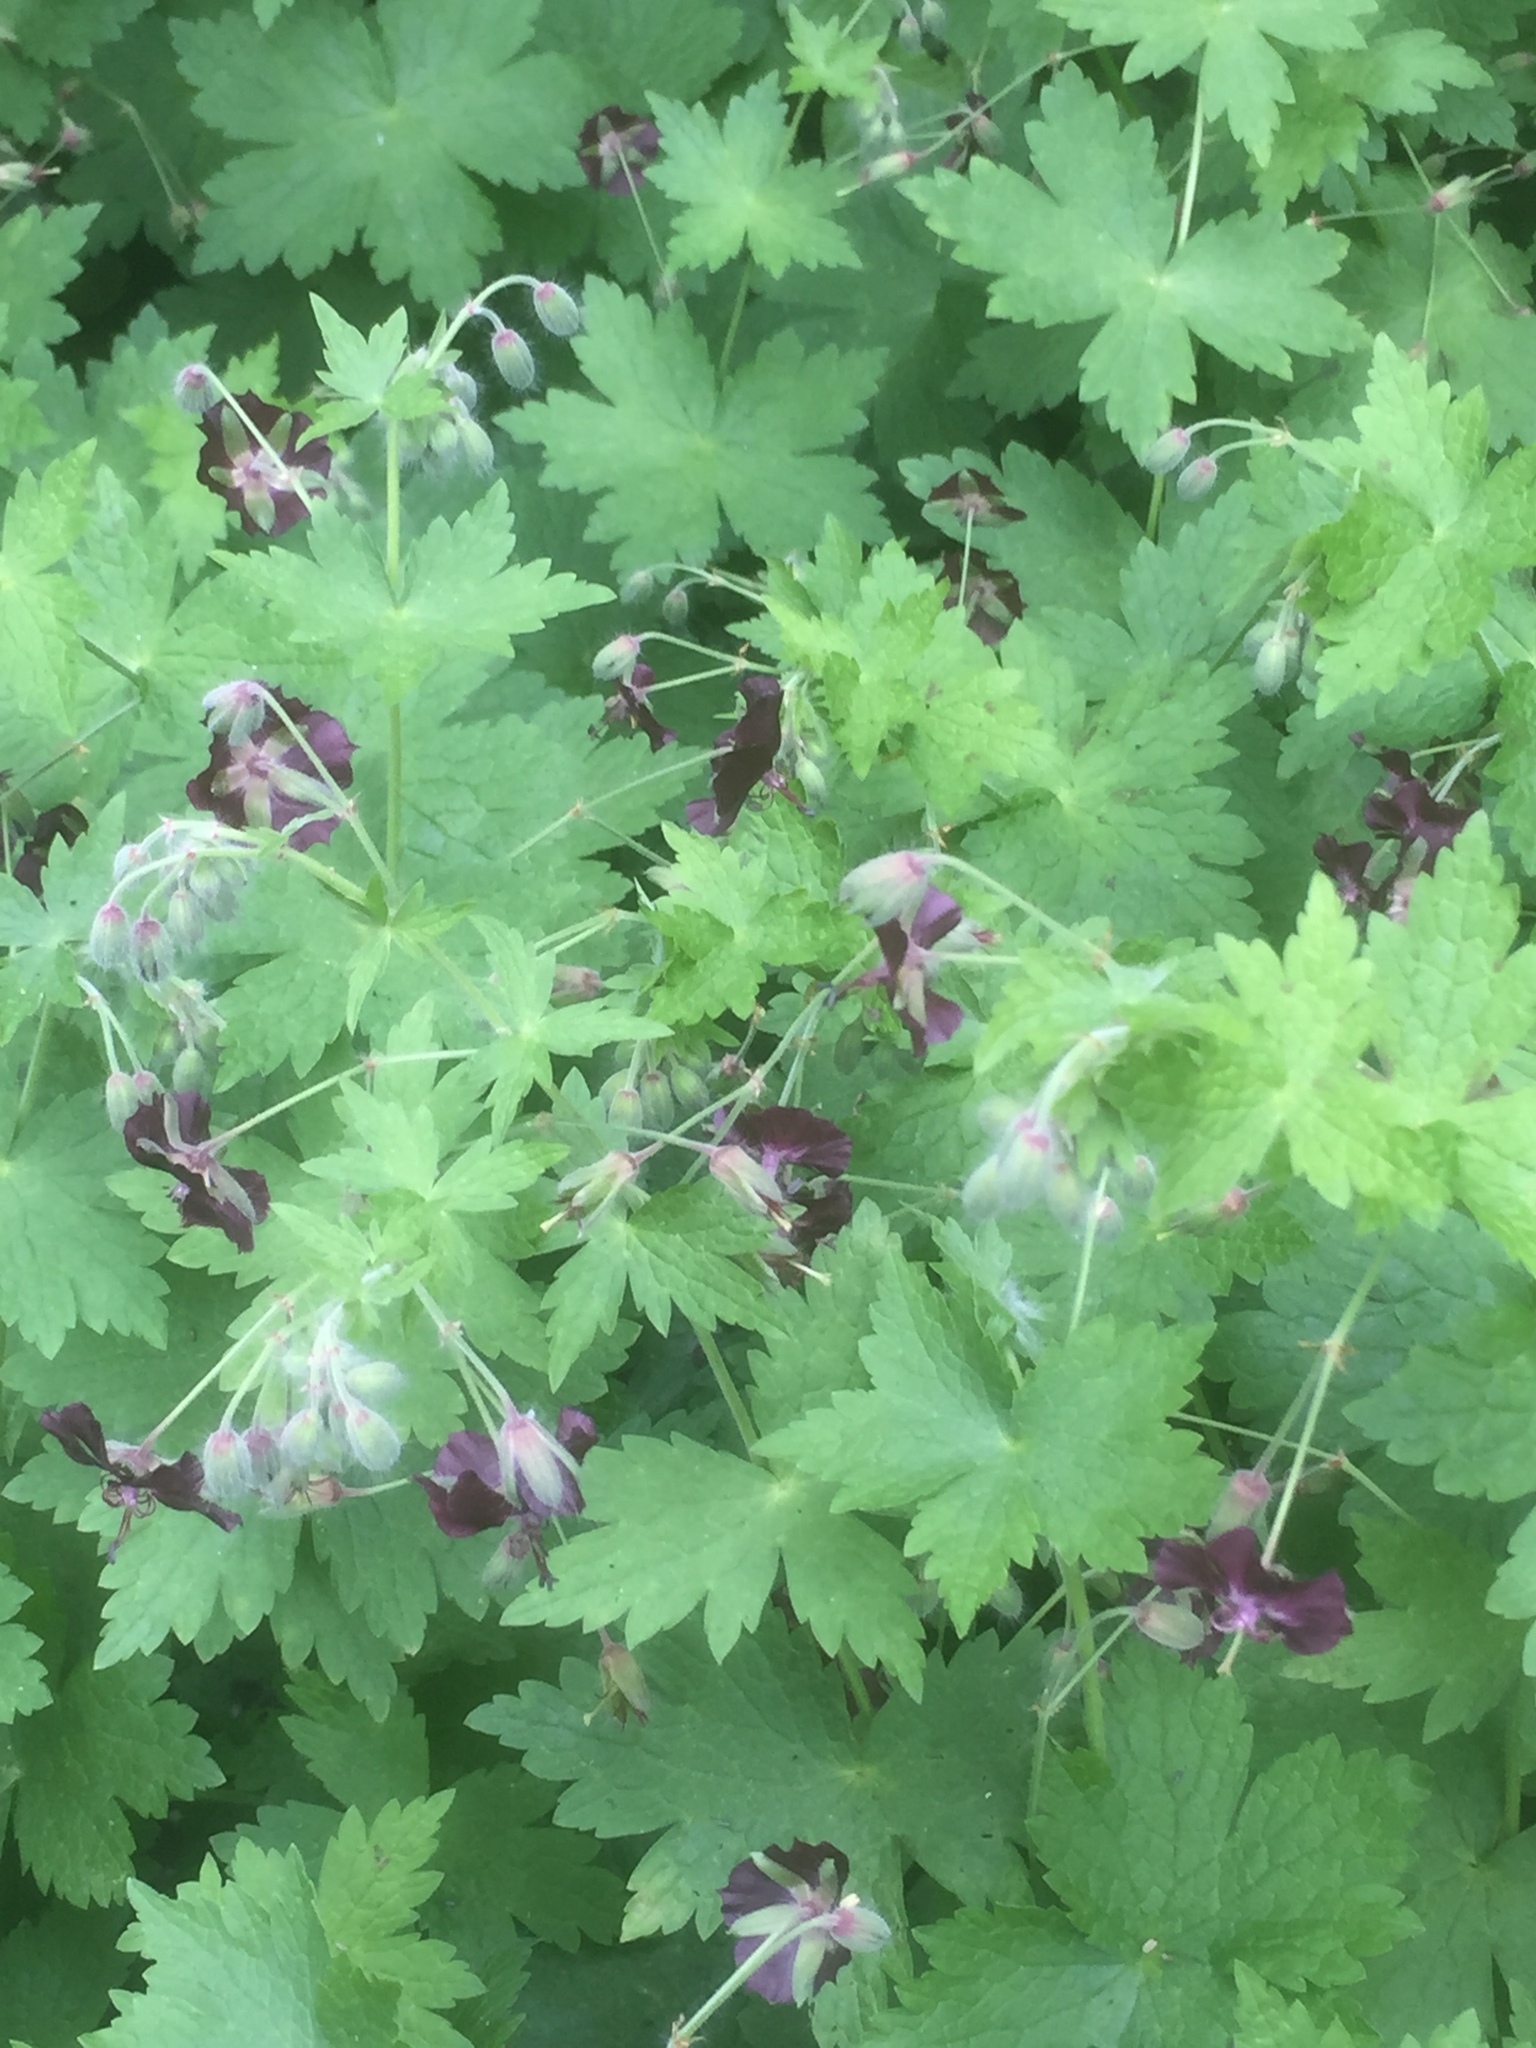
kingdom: Plantae
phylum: Tracheophyta
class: Magnoliopsida
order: Geraniales
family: Geraniaceae
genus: Geranium
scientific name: Geranium phaeum
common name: Dusky crane's-bill
